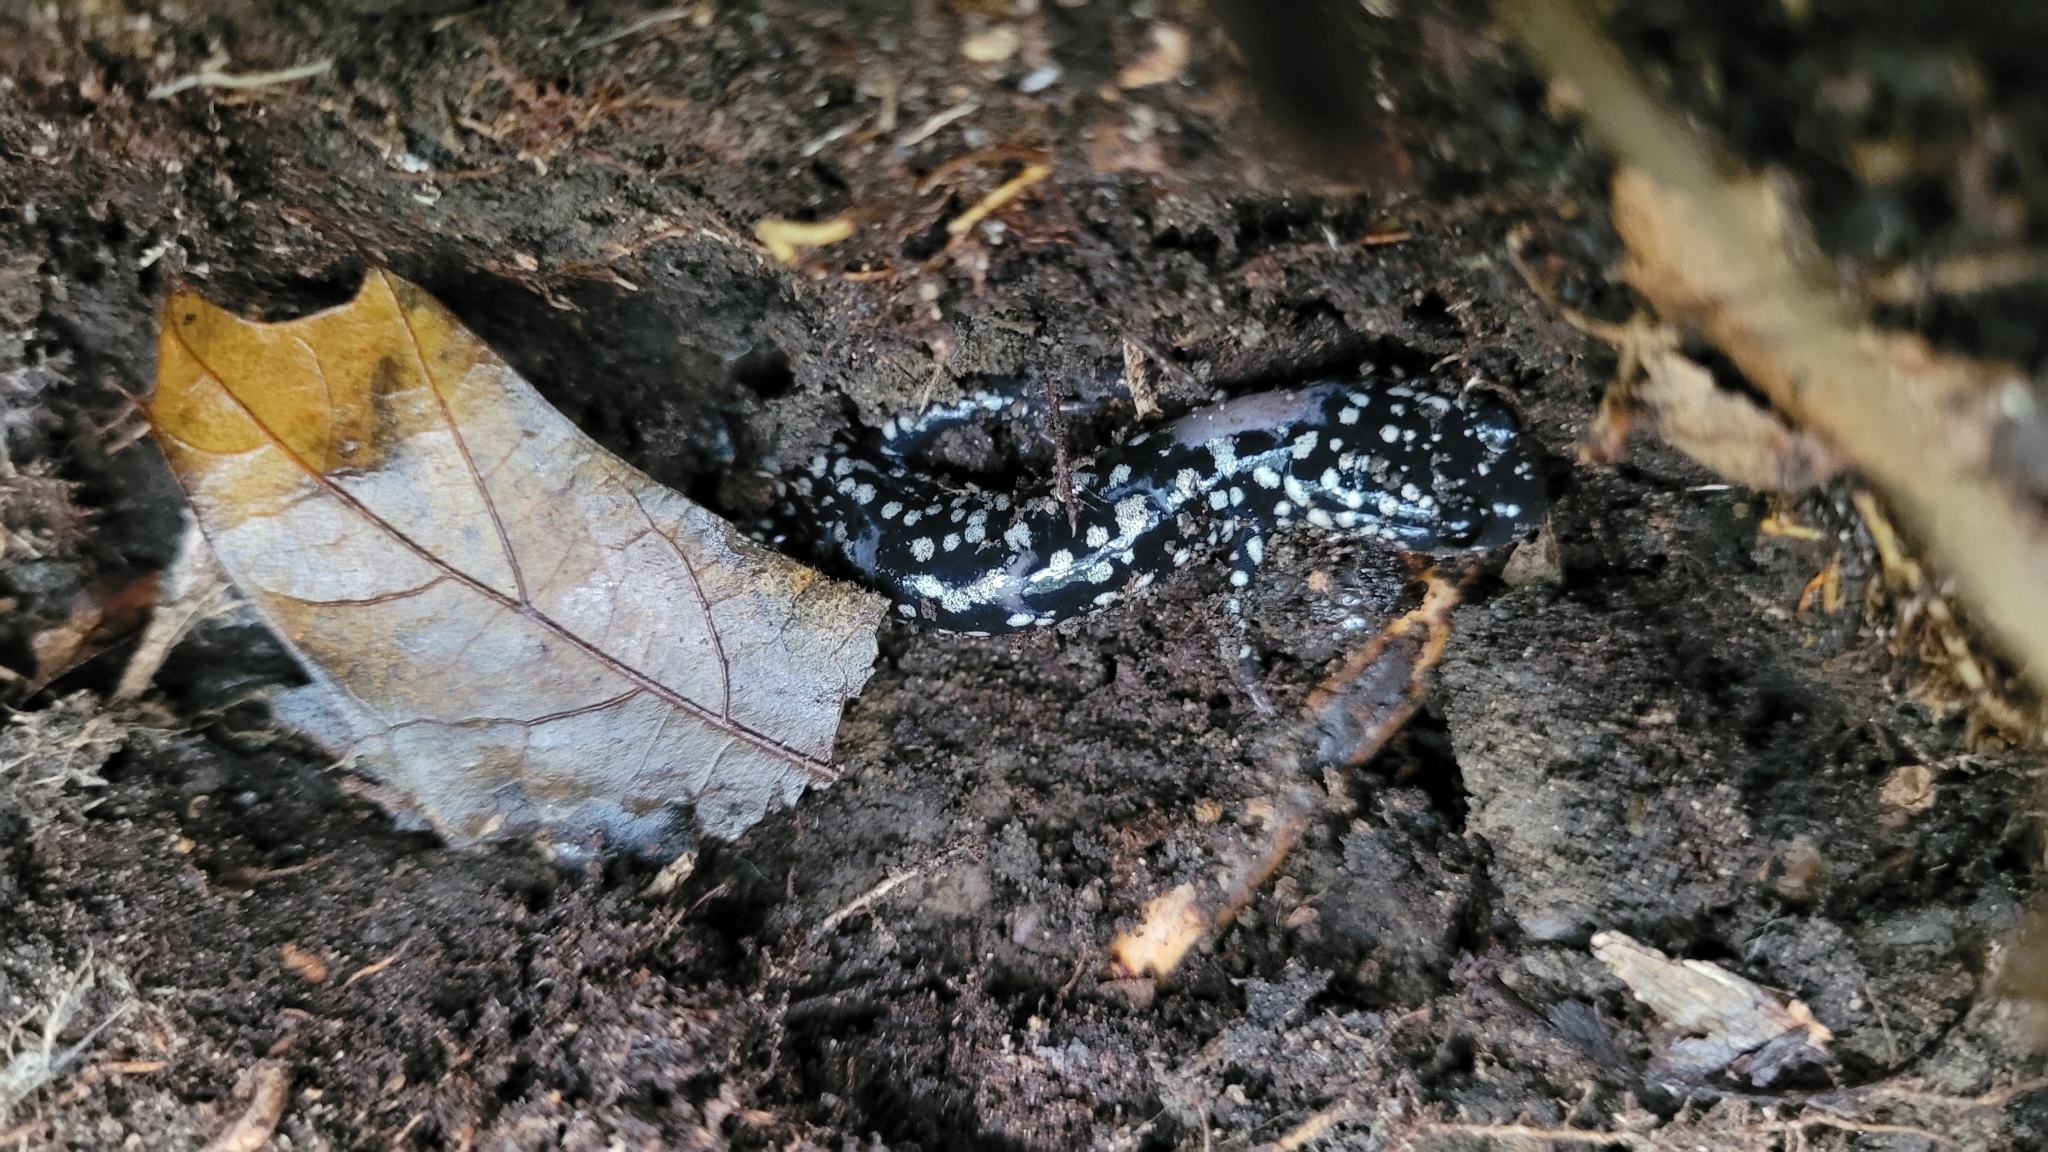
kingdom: Animalia
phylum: Chordata
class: Amphibia
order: Caudata
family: Plethodontidae
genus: Plethodon
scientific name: Plethodon glutinosus
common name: Northern slimy salamander
